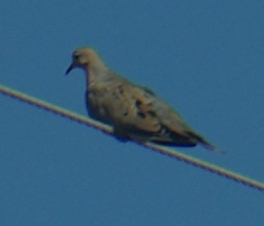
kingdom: Animalia
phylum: Chordata
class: Aves
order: Columbiformes
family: Columbidae
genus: Zenaida
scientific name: Zenaida macroura
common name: Mourning dove
